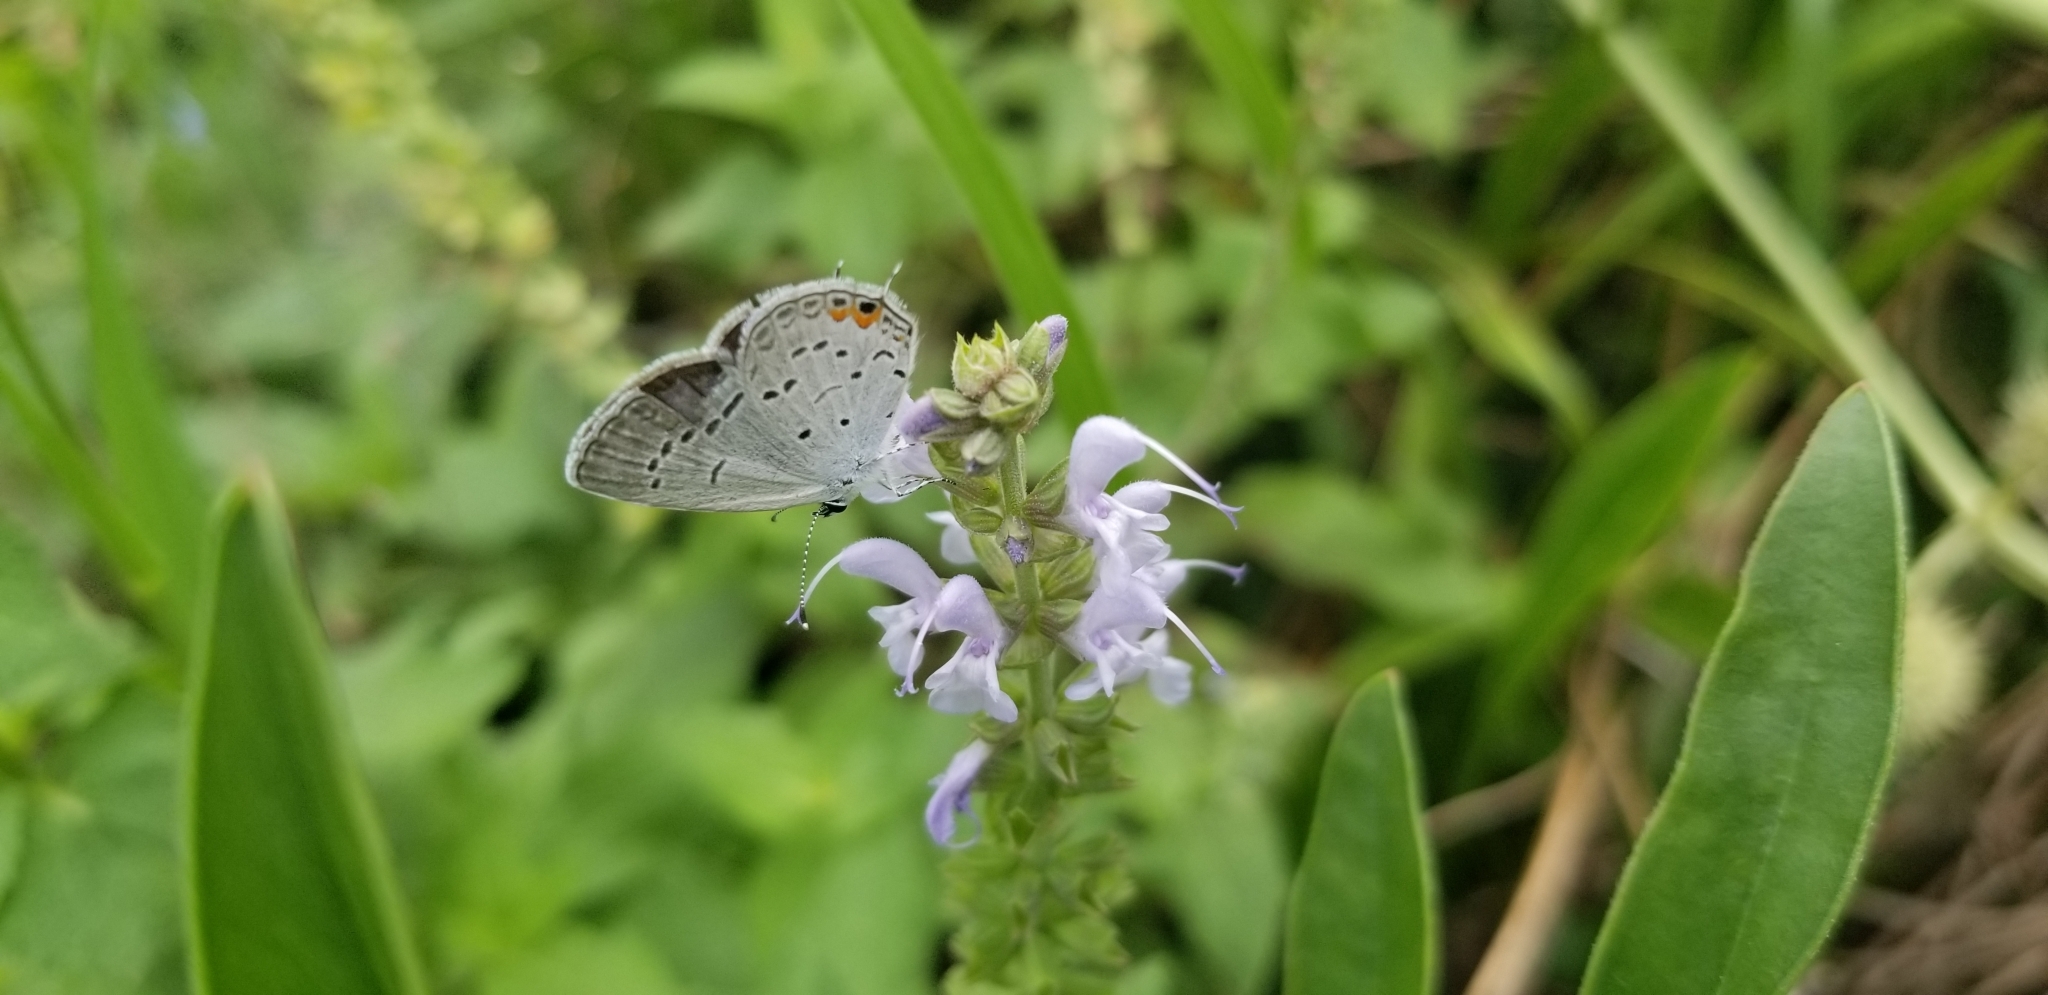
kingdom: Animalia
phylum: Arthropoda
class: Insecta
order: Lepidoptera
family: Lycaenidae
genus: Elkalyce
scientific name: Elkalyce comyntas
